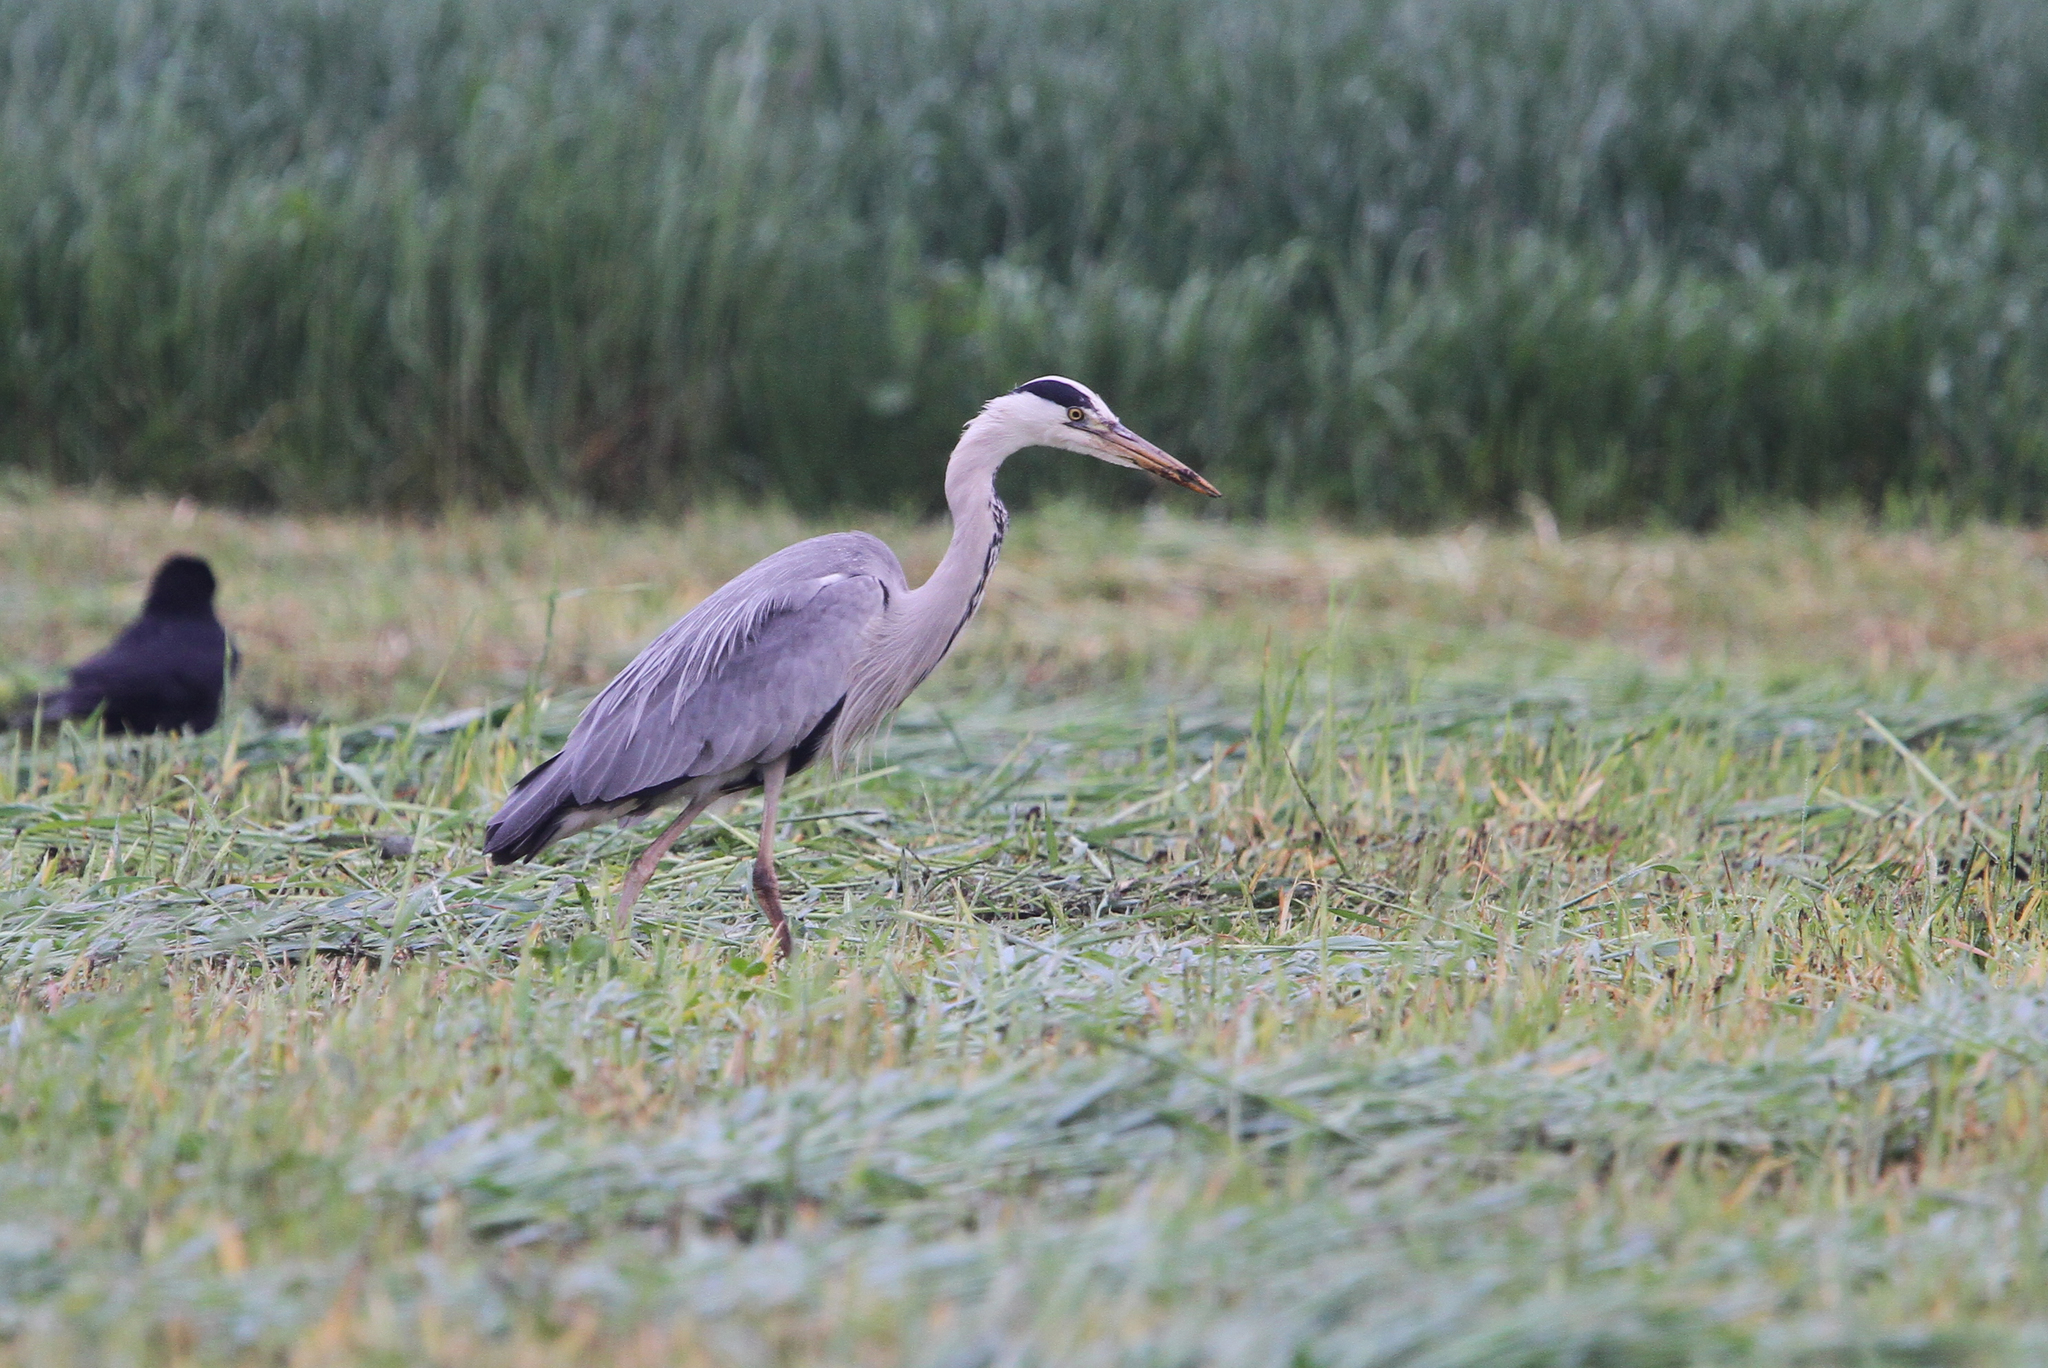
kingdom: Animalia
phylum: Chordata
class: Aves
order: Pelecaniformes
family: Ardeidae
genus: Ardea
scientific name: Ardea cinerea
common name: Grey heron
